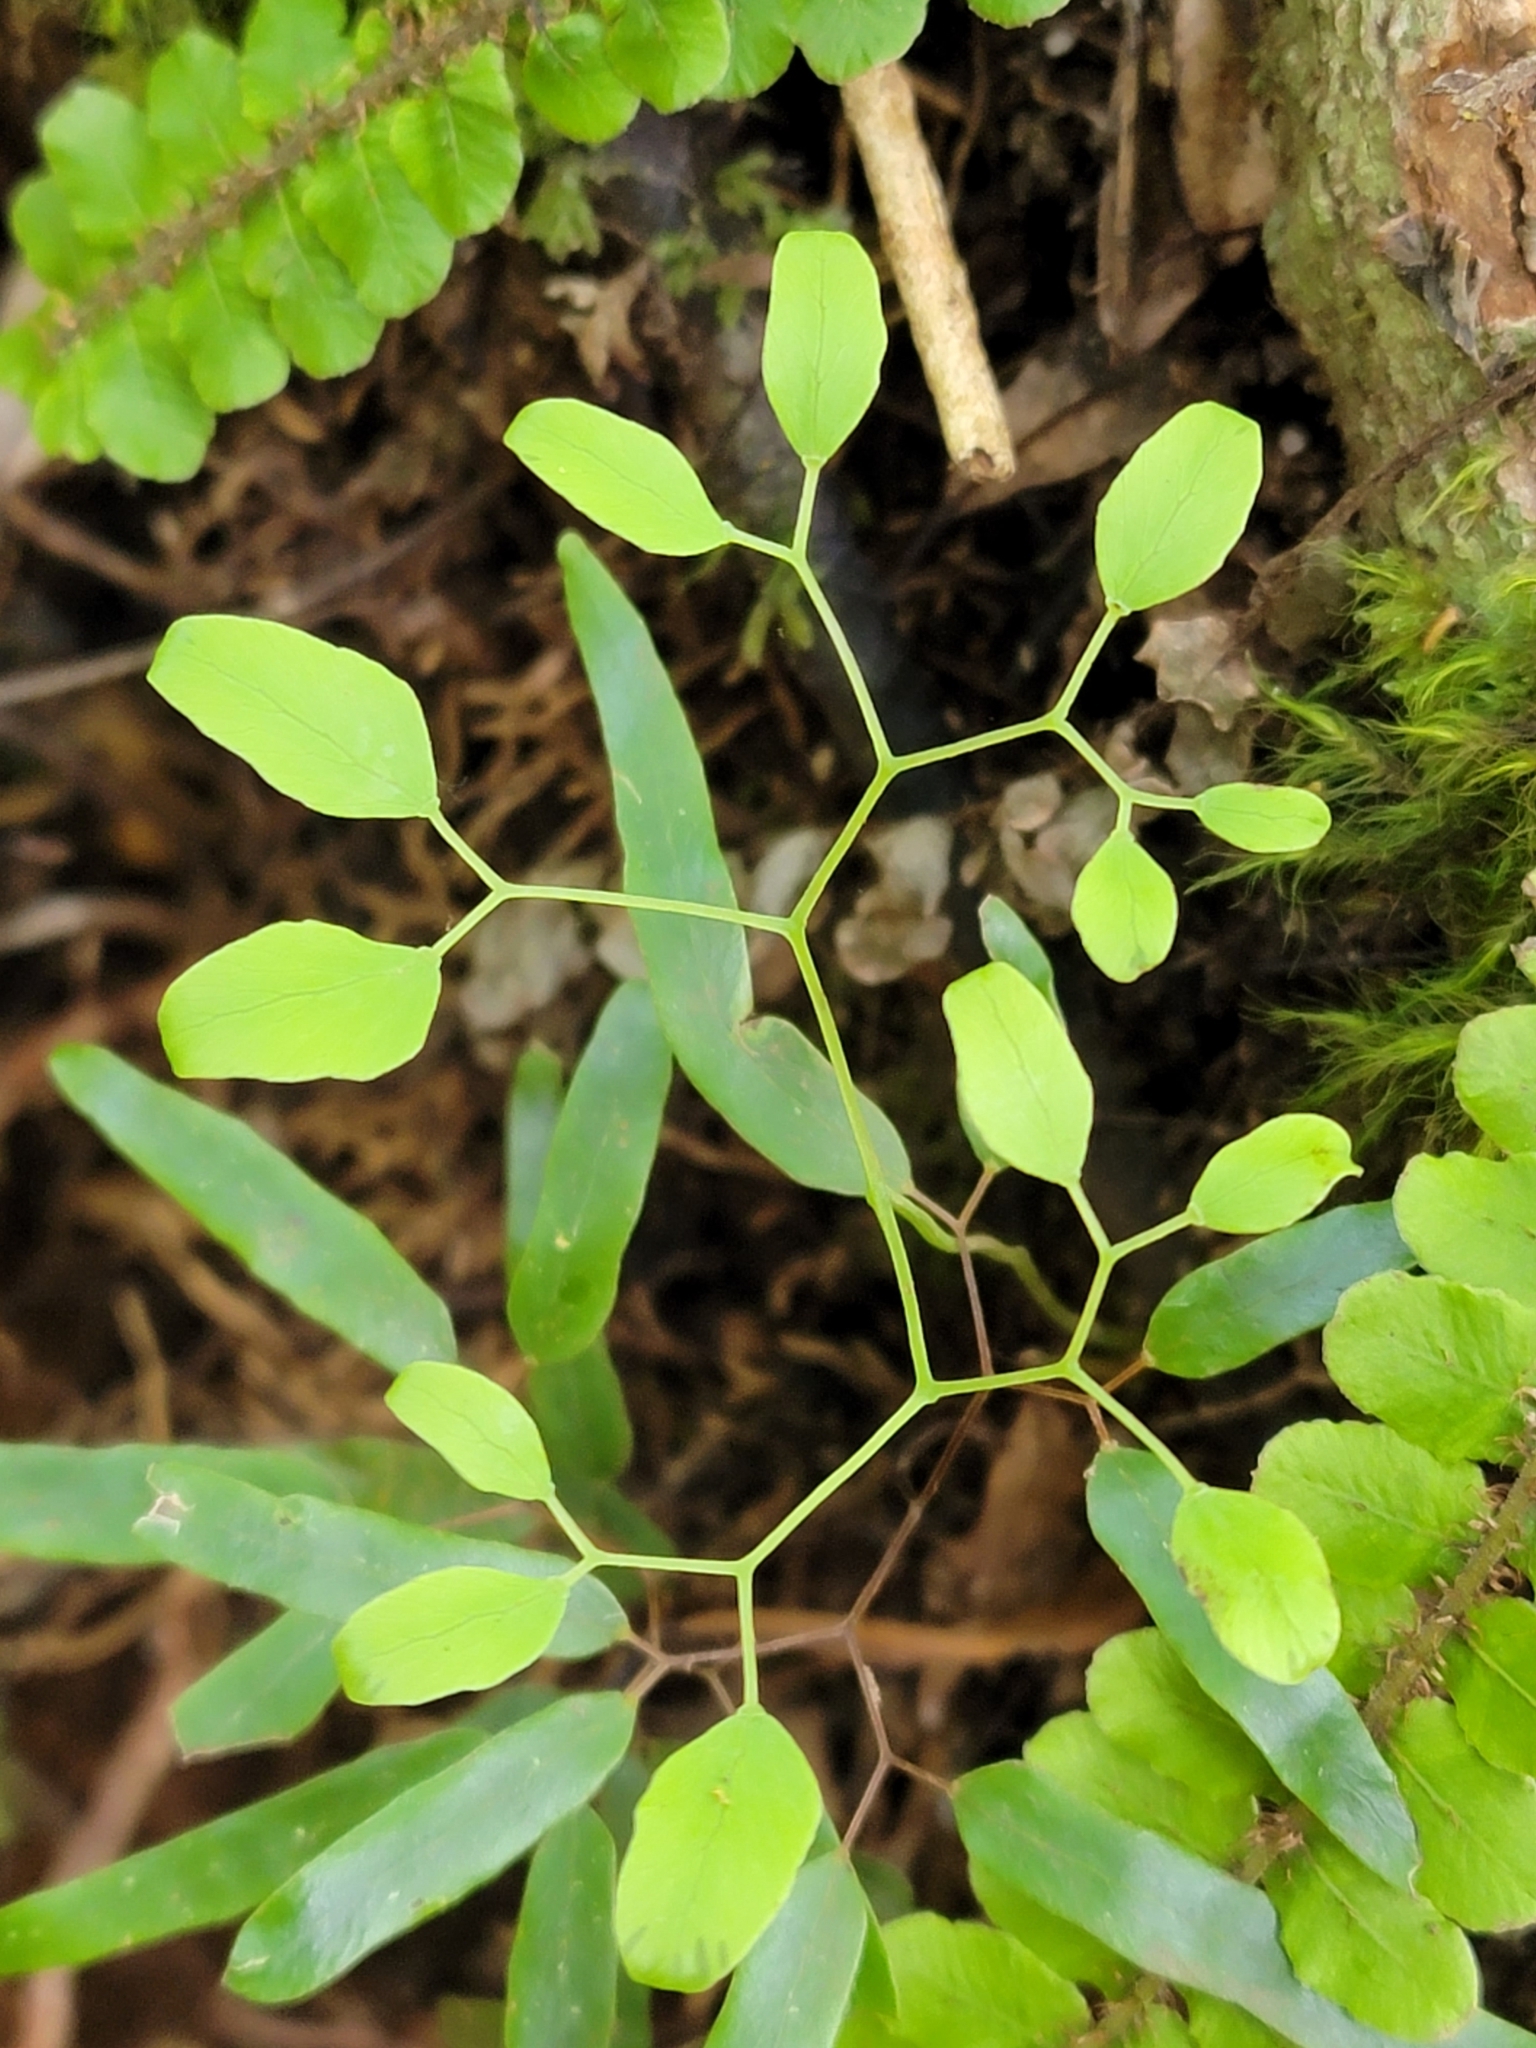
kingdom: Plantae
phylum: Tracheophyta
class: Polypodiopsida
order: Schizaeales
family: Lygodiaceae
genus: Lygodium
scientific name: Lygodium articulatum
